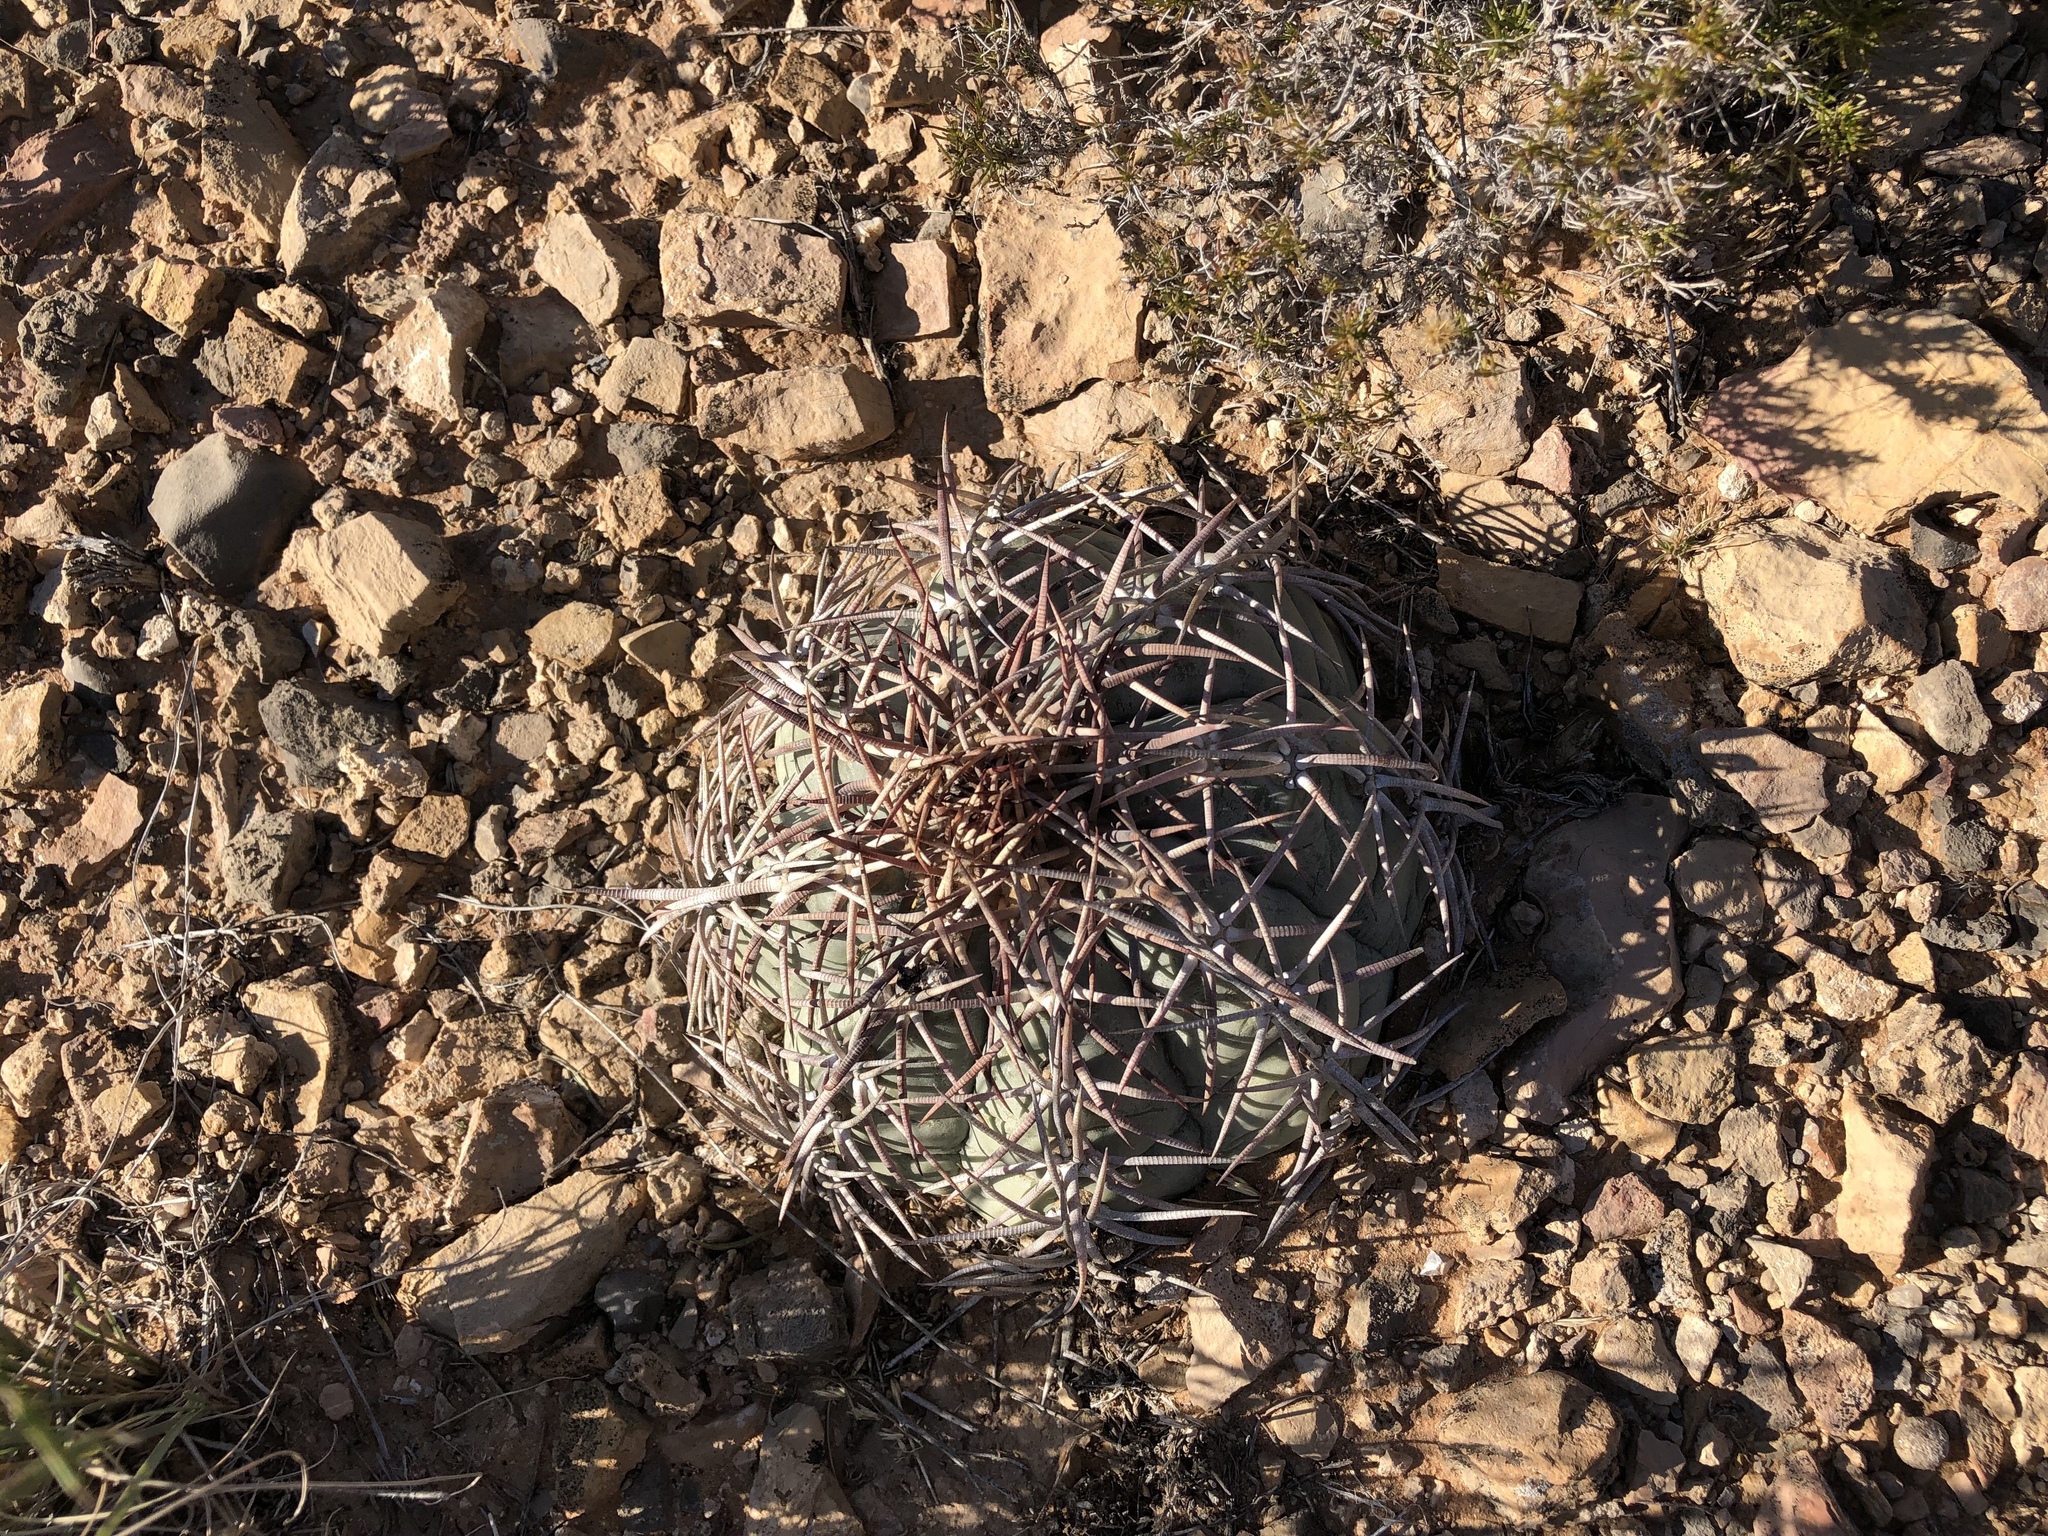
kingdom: Plantae
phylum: Tracheophyta
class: Magnoliopsida
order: Caryophyllales
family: Cactaceae
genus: Echinocactus
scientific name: Echinocactus horizonthalonius
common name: Devilshead
